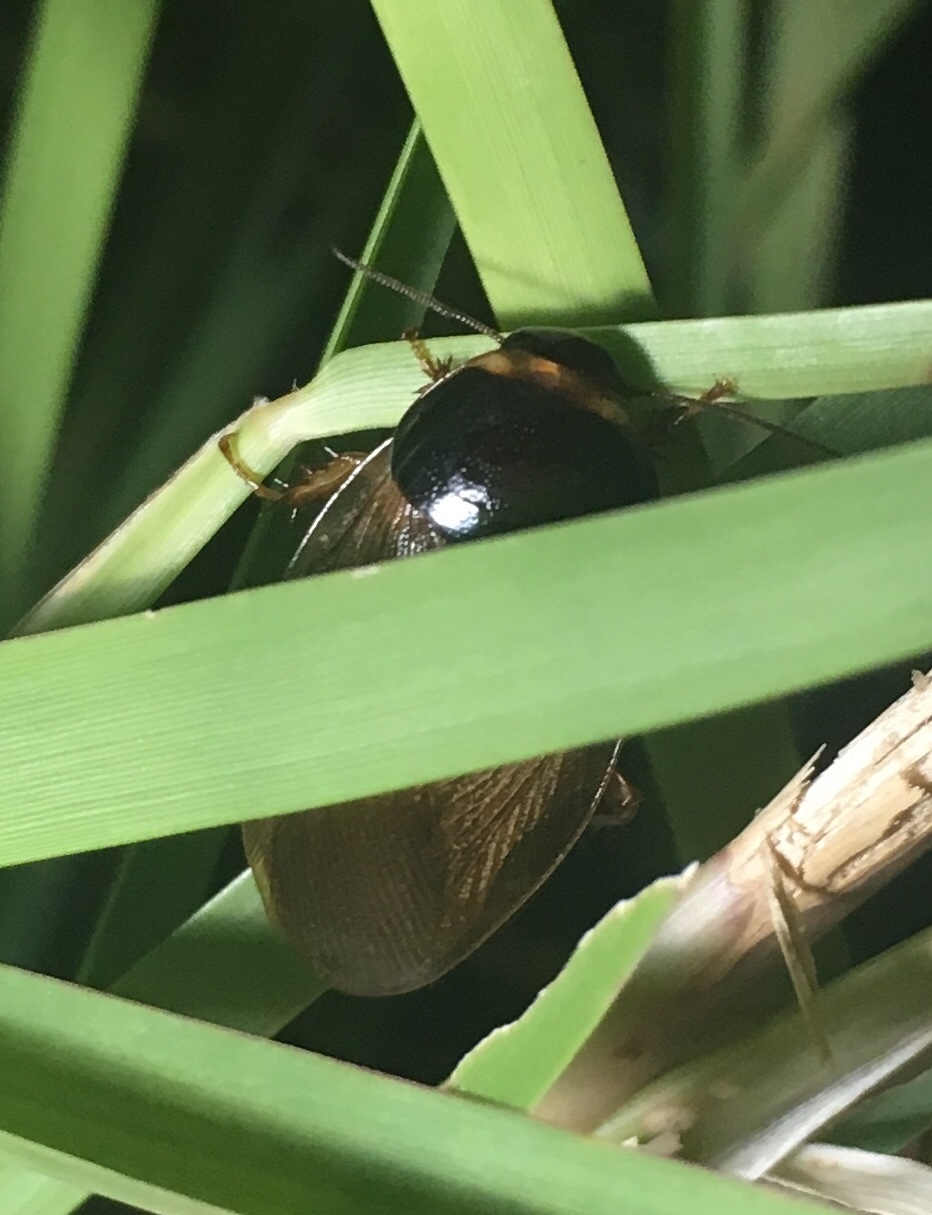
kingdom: Animalia
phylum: Arthropoda
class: Insecta
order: Blattodea
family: Blaberidae
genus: Pycnoscelus
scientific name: Pycnoscelus surinamensis
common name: Surinam cockroach
